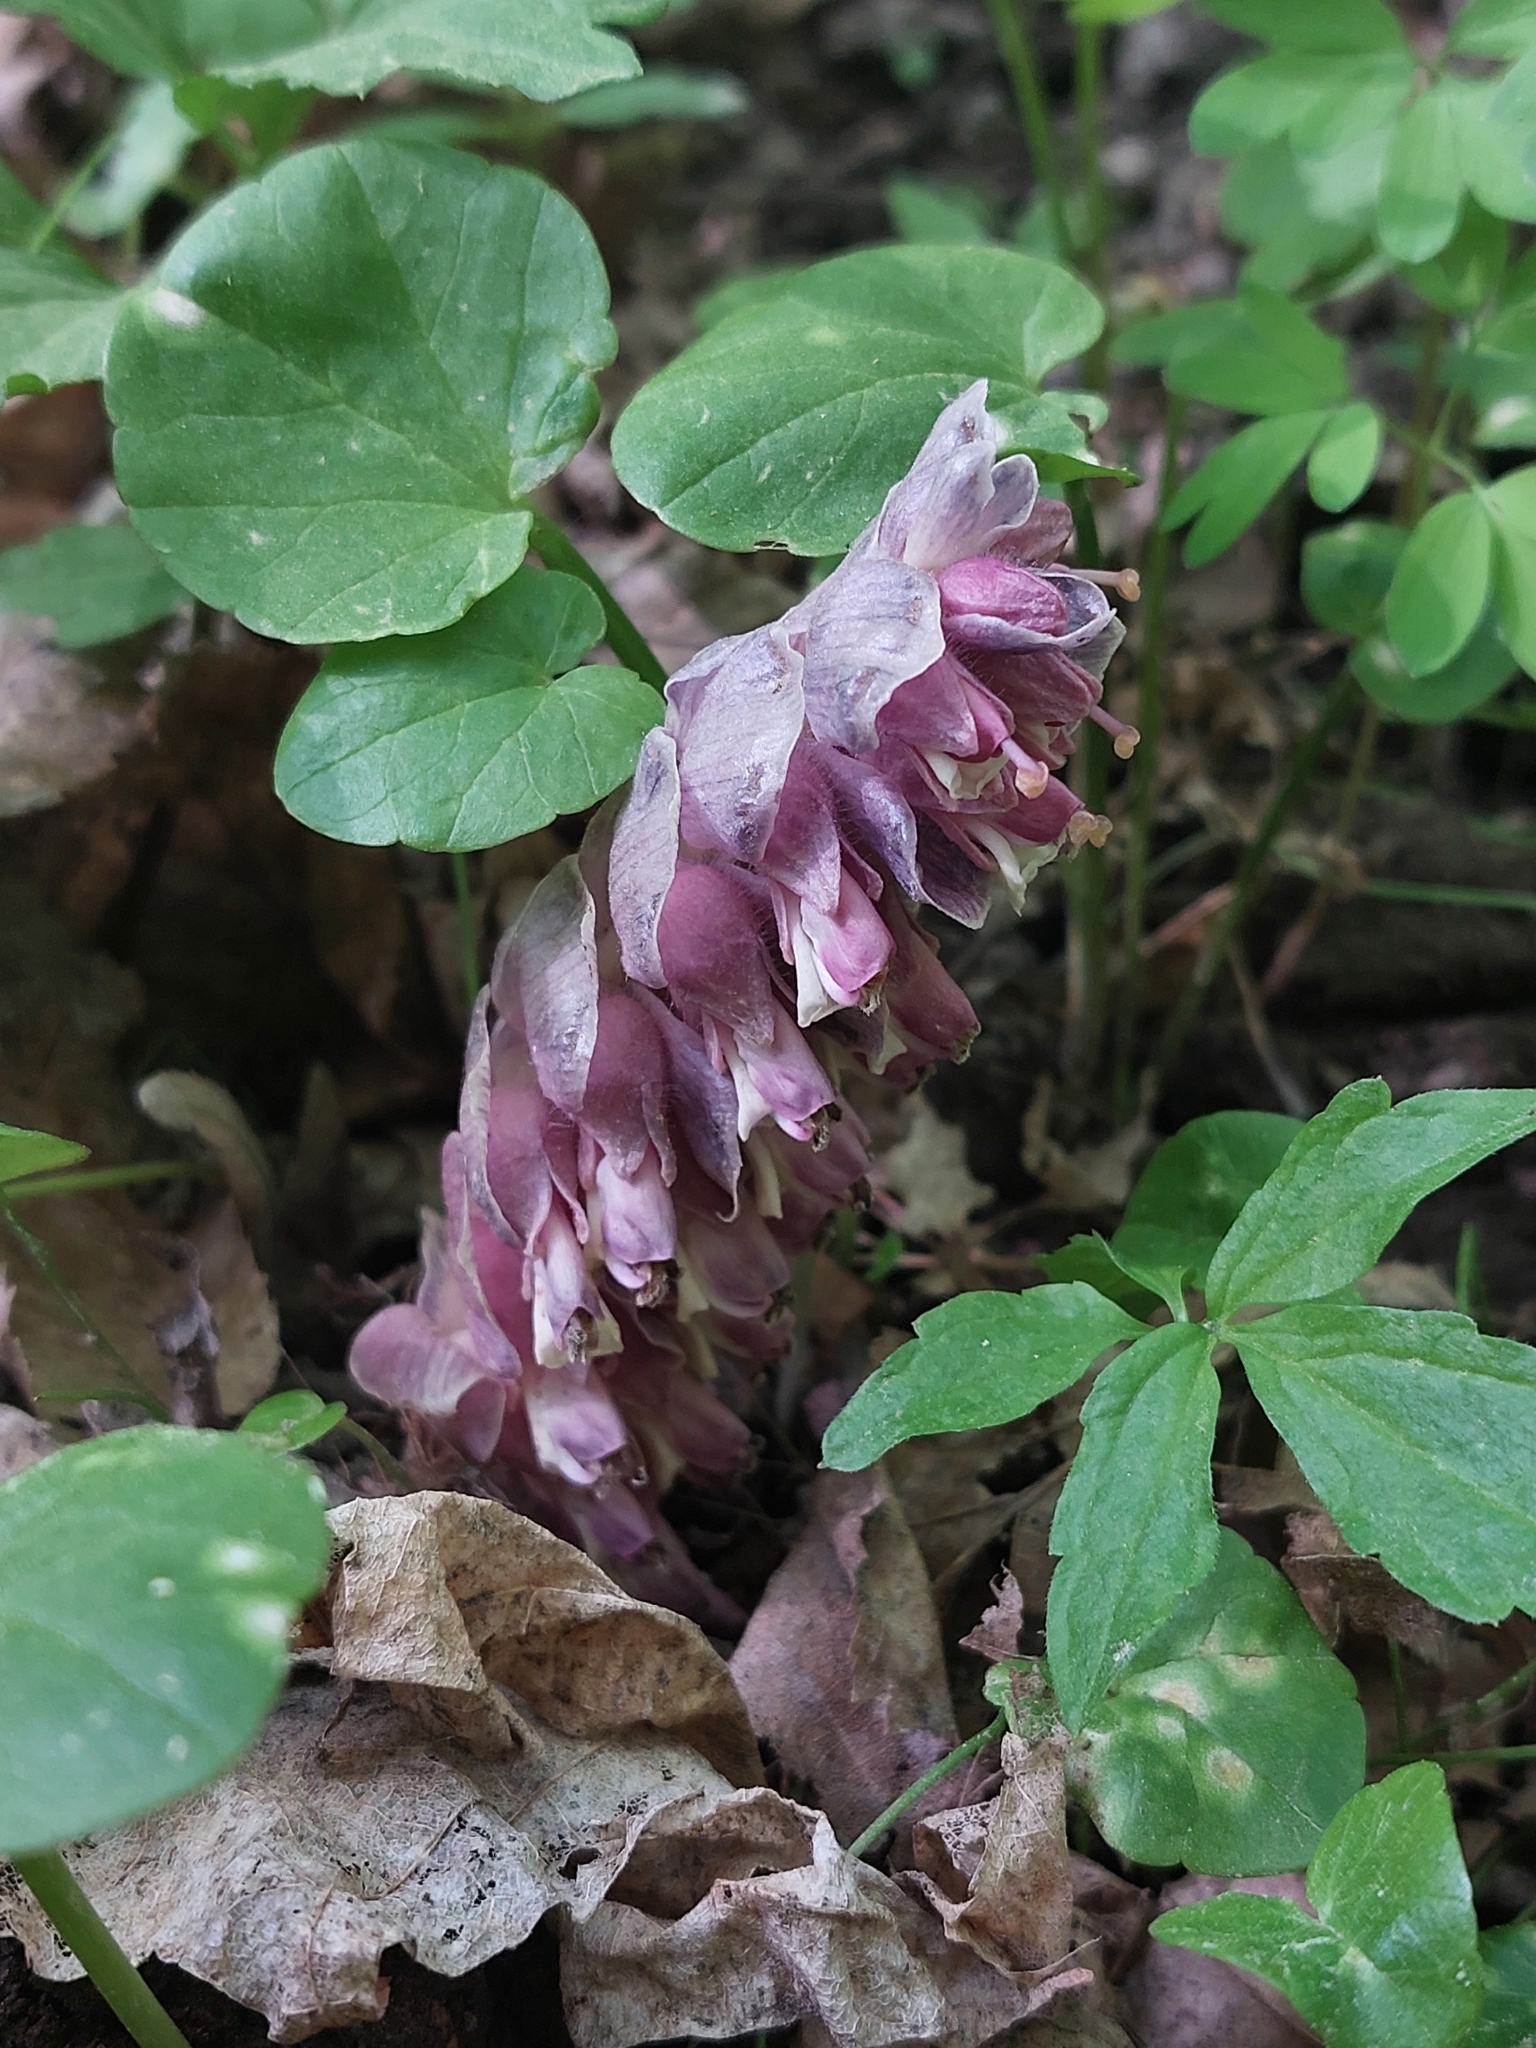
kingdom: Plantae
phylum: Tracheophyta
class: Magnoliopsida
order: Lamiales
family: Orobanchaceae
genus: Lathraea
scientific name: Lathraea squamaria
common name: Toothwort
